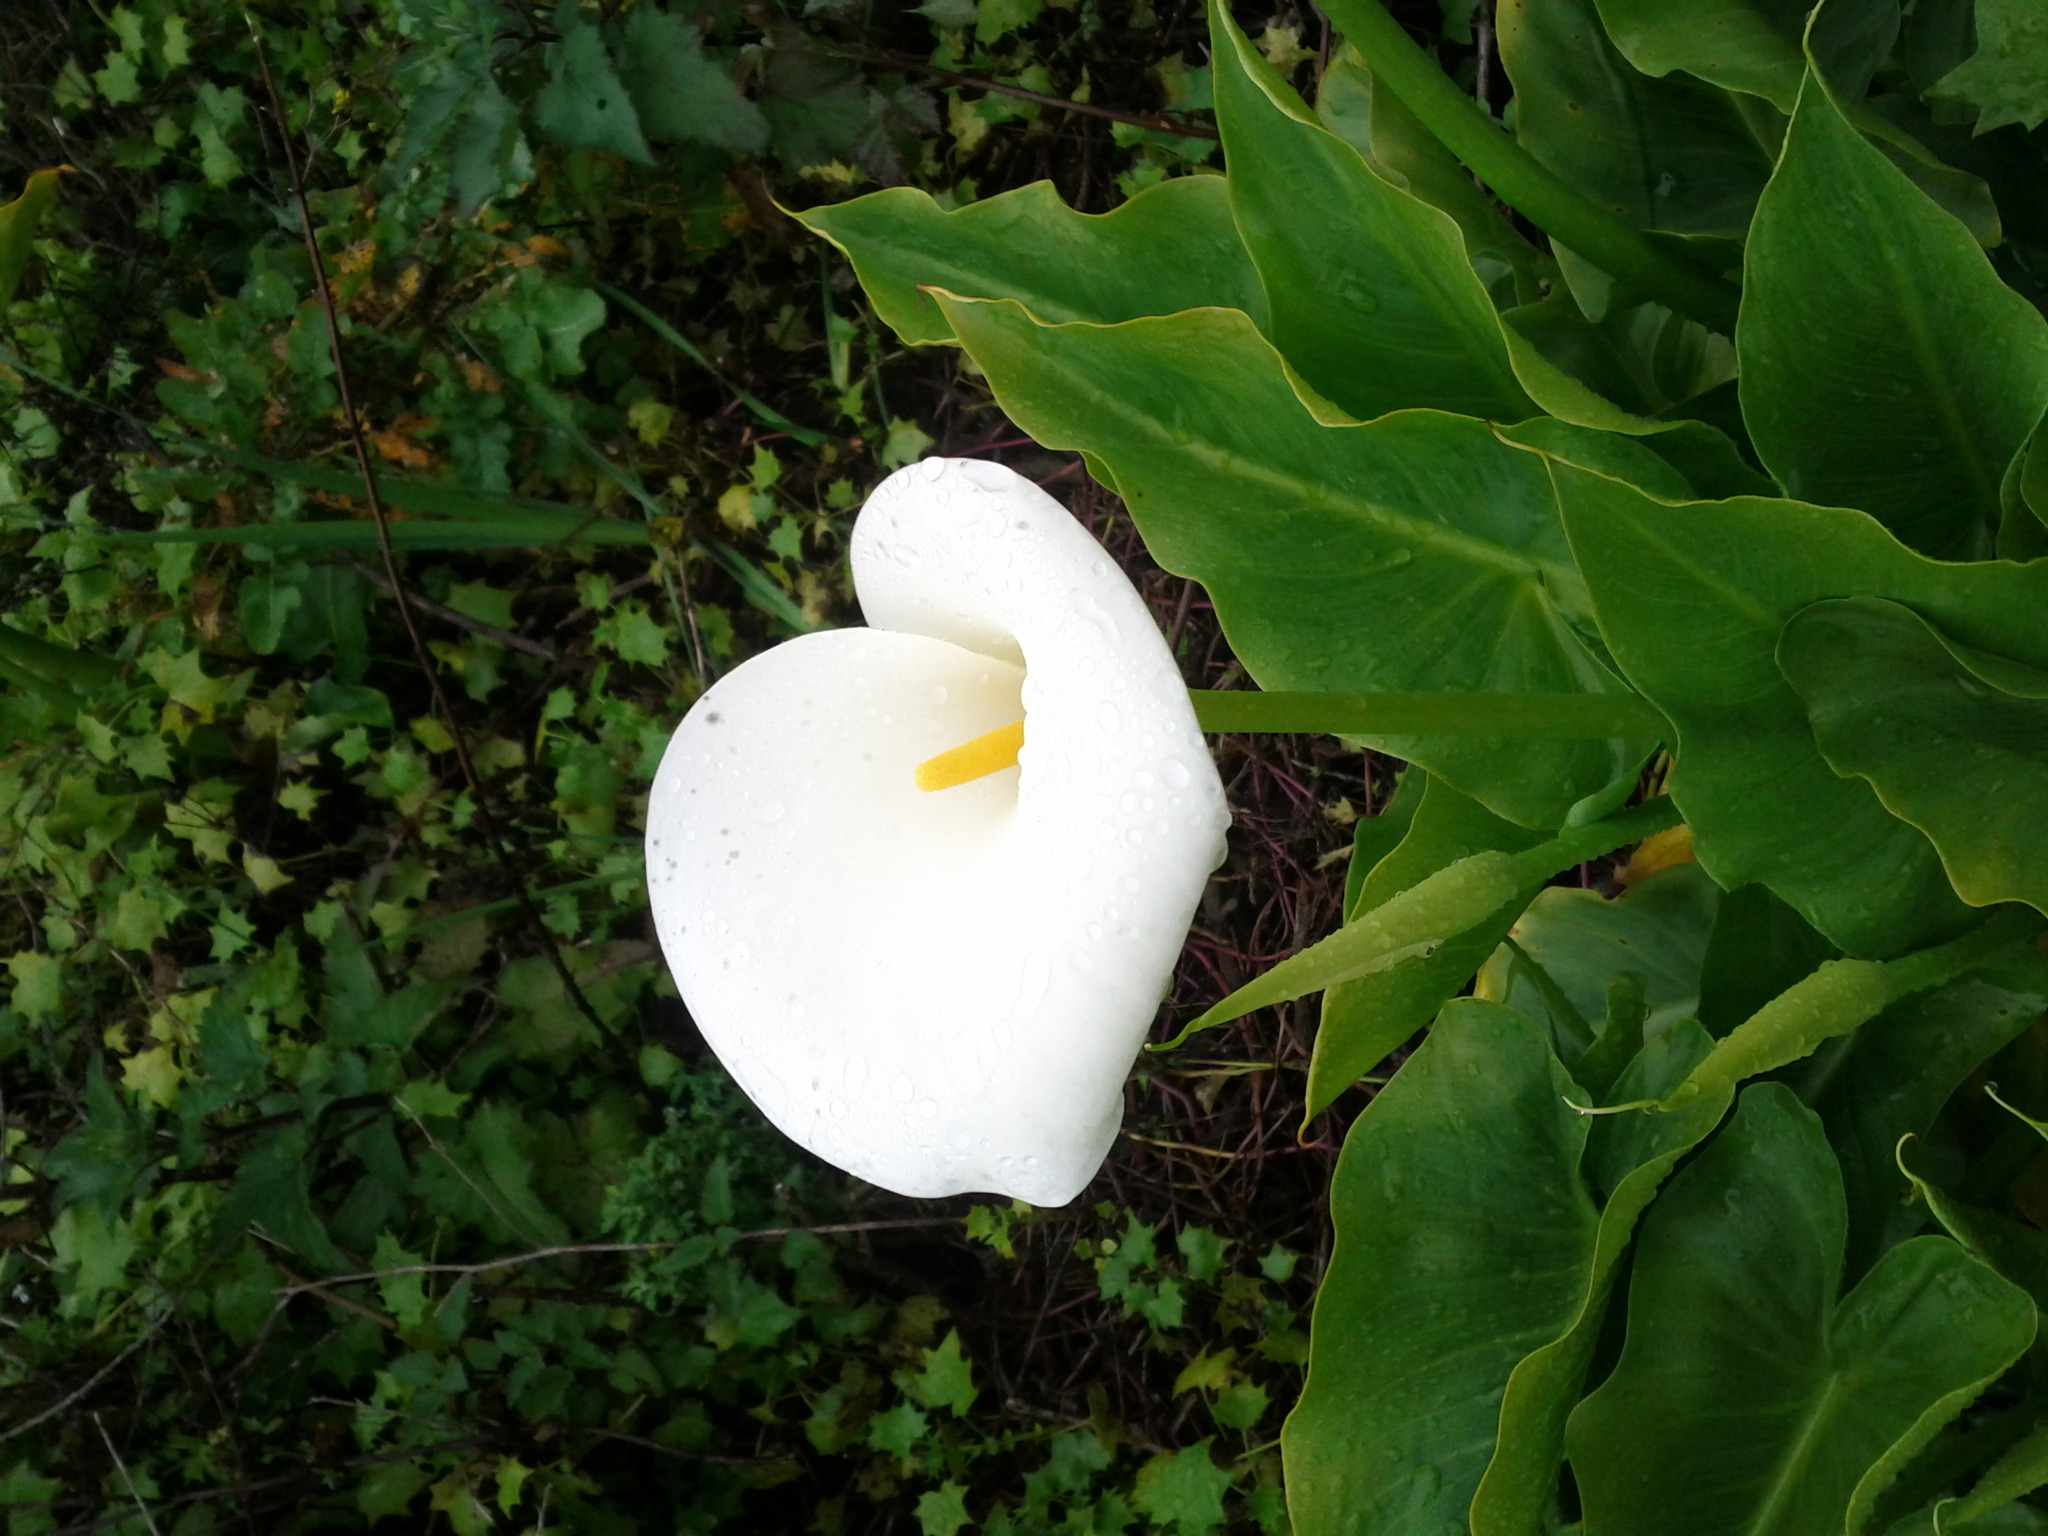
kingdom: Plantae
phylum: Tracheophyta
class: Liliopsida
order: Alismatales
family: Araceae
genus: Zantedeschia
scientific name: Zantedeschia aethiopica
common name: Altar-lily
